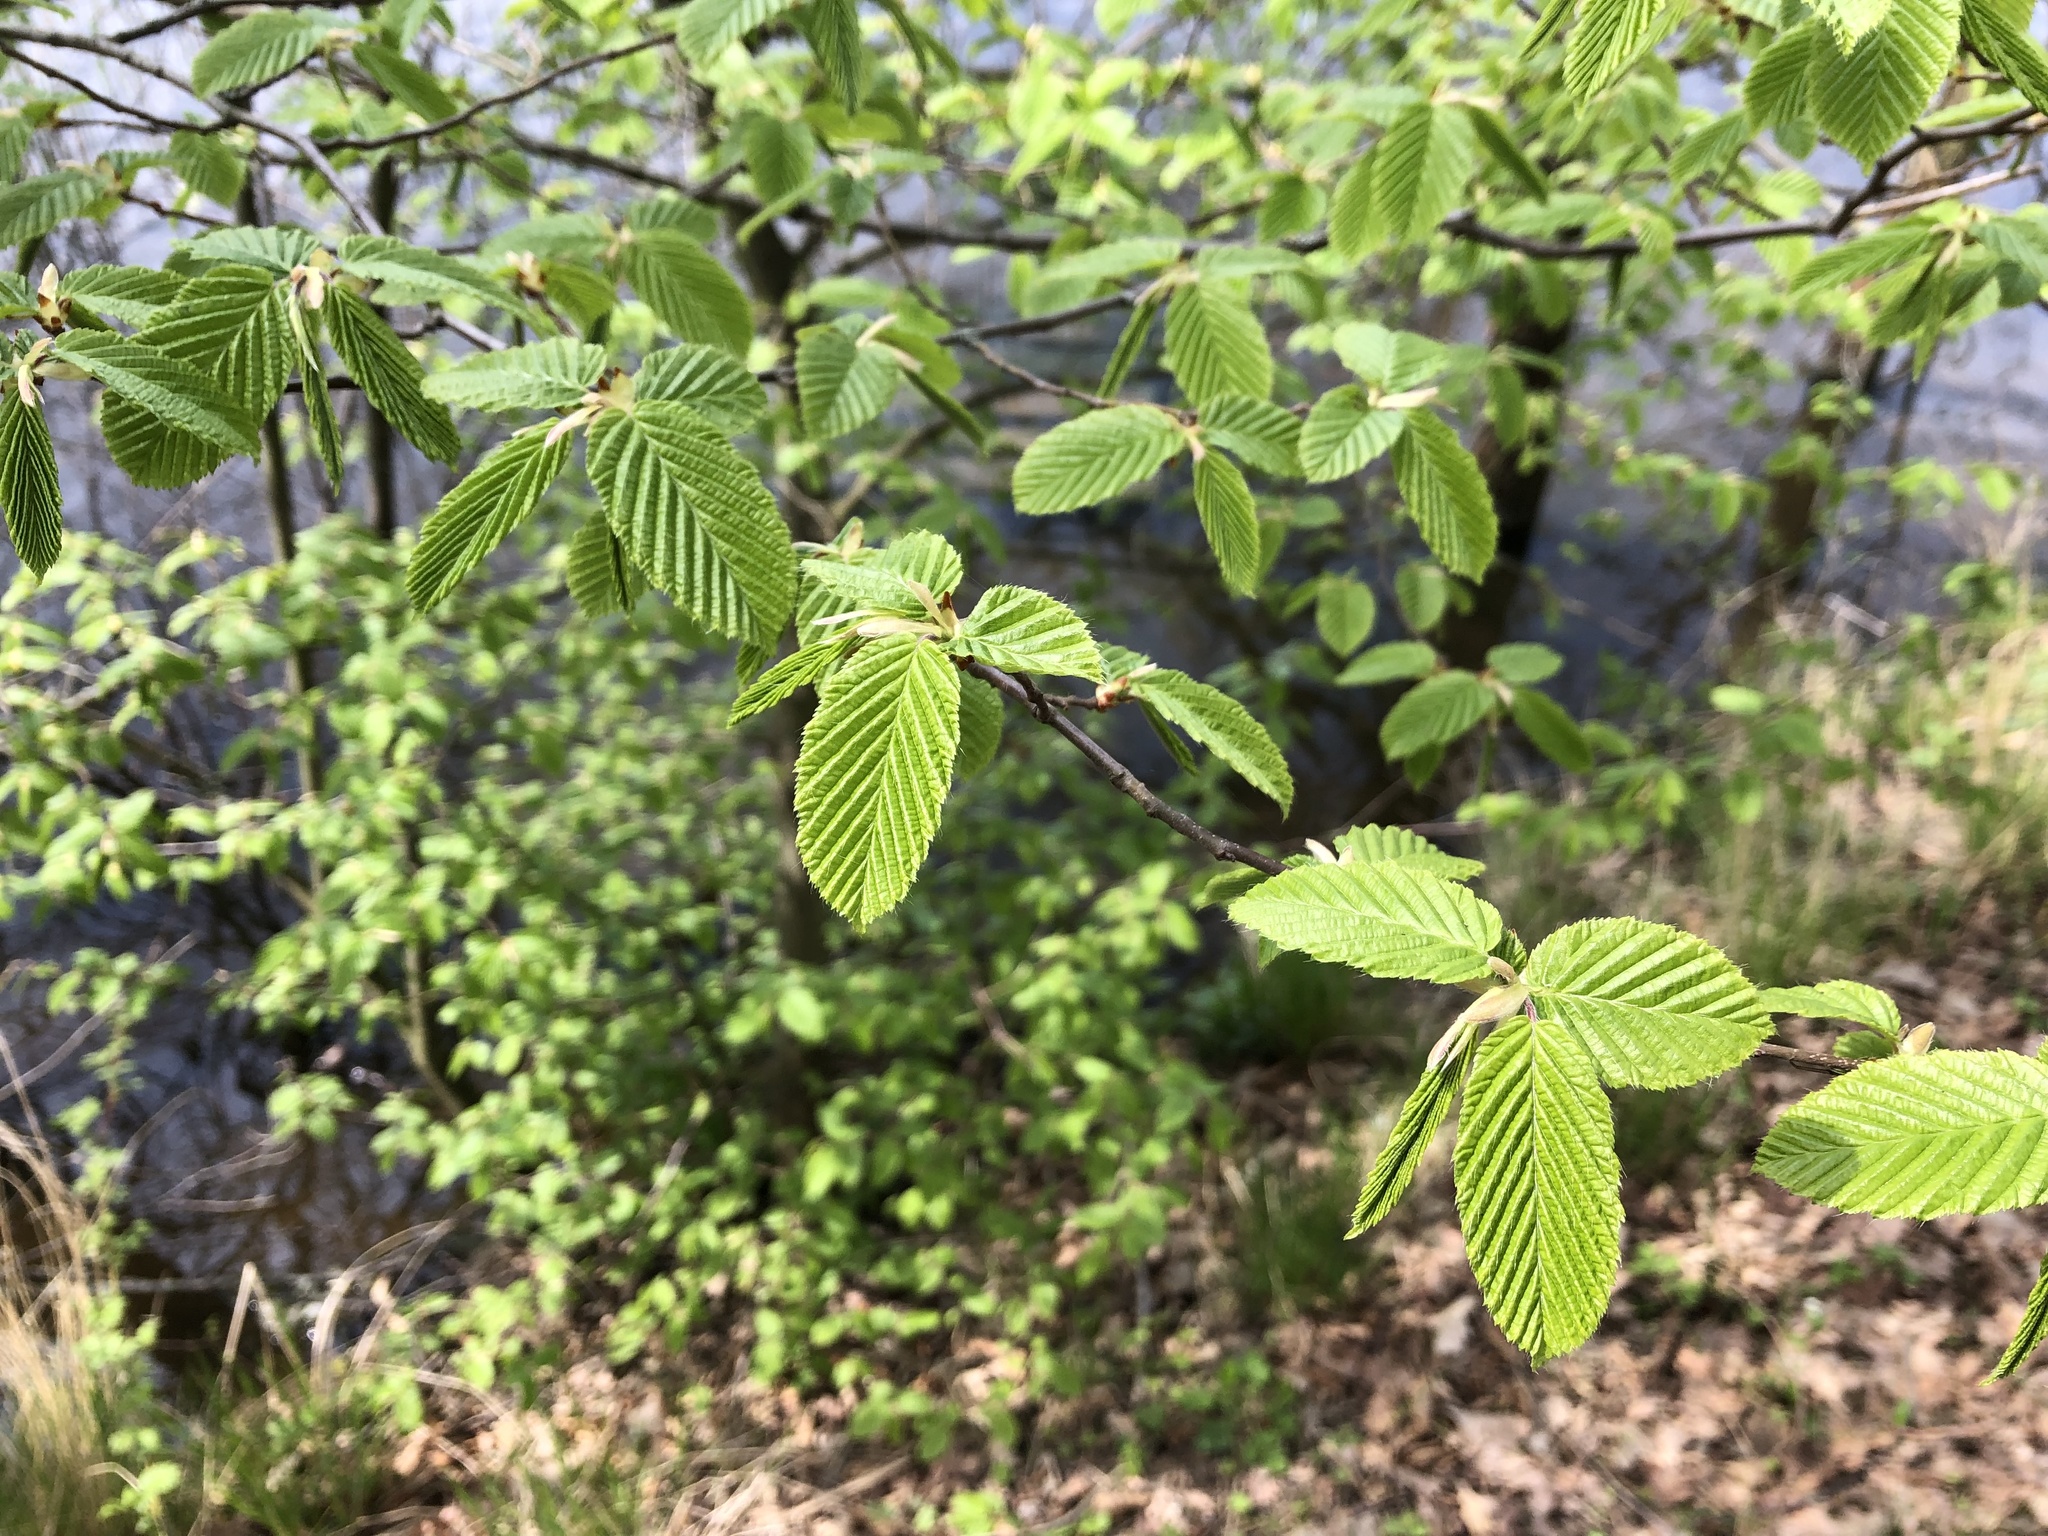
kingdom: Plantae
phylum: Tracheophyta
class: Magnoliopsida
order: Fagales
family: Betulaceae
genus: Carpinus
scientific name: Carpinus betulus
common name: Hornbeam
